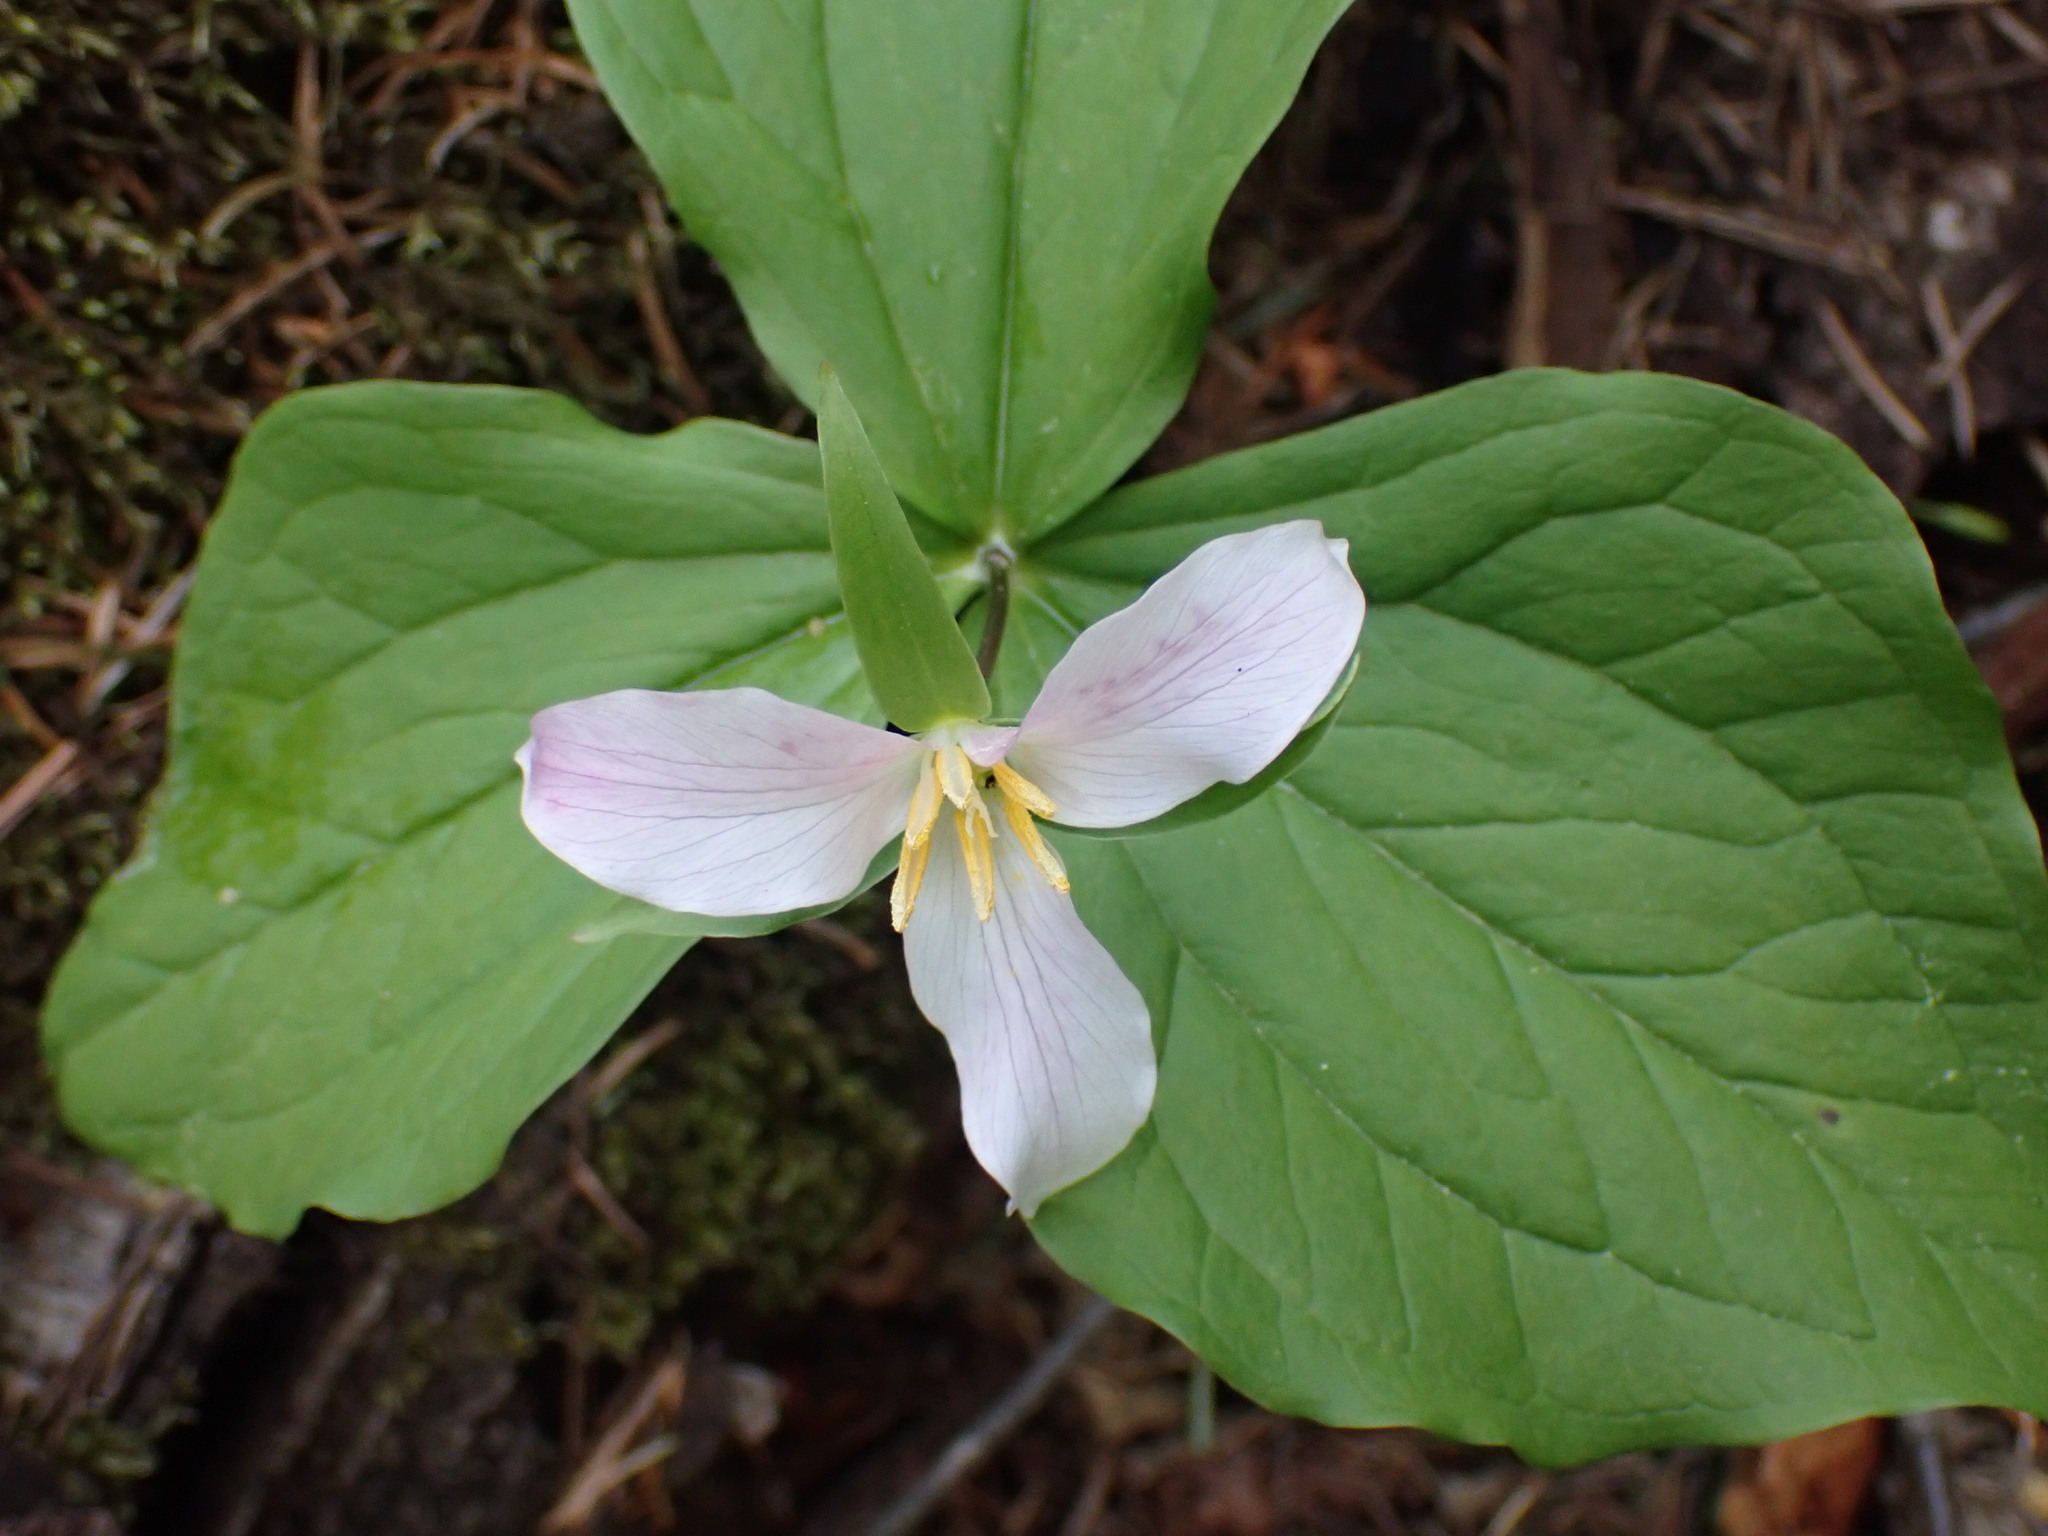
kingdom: Plantae
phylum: Tracheophyta
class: Liliopsida
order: Liliales
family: Melanthiaceae
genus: Trillium
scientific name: Trillium ovatum
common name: Pacific trillium
